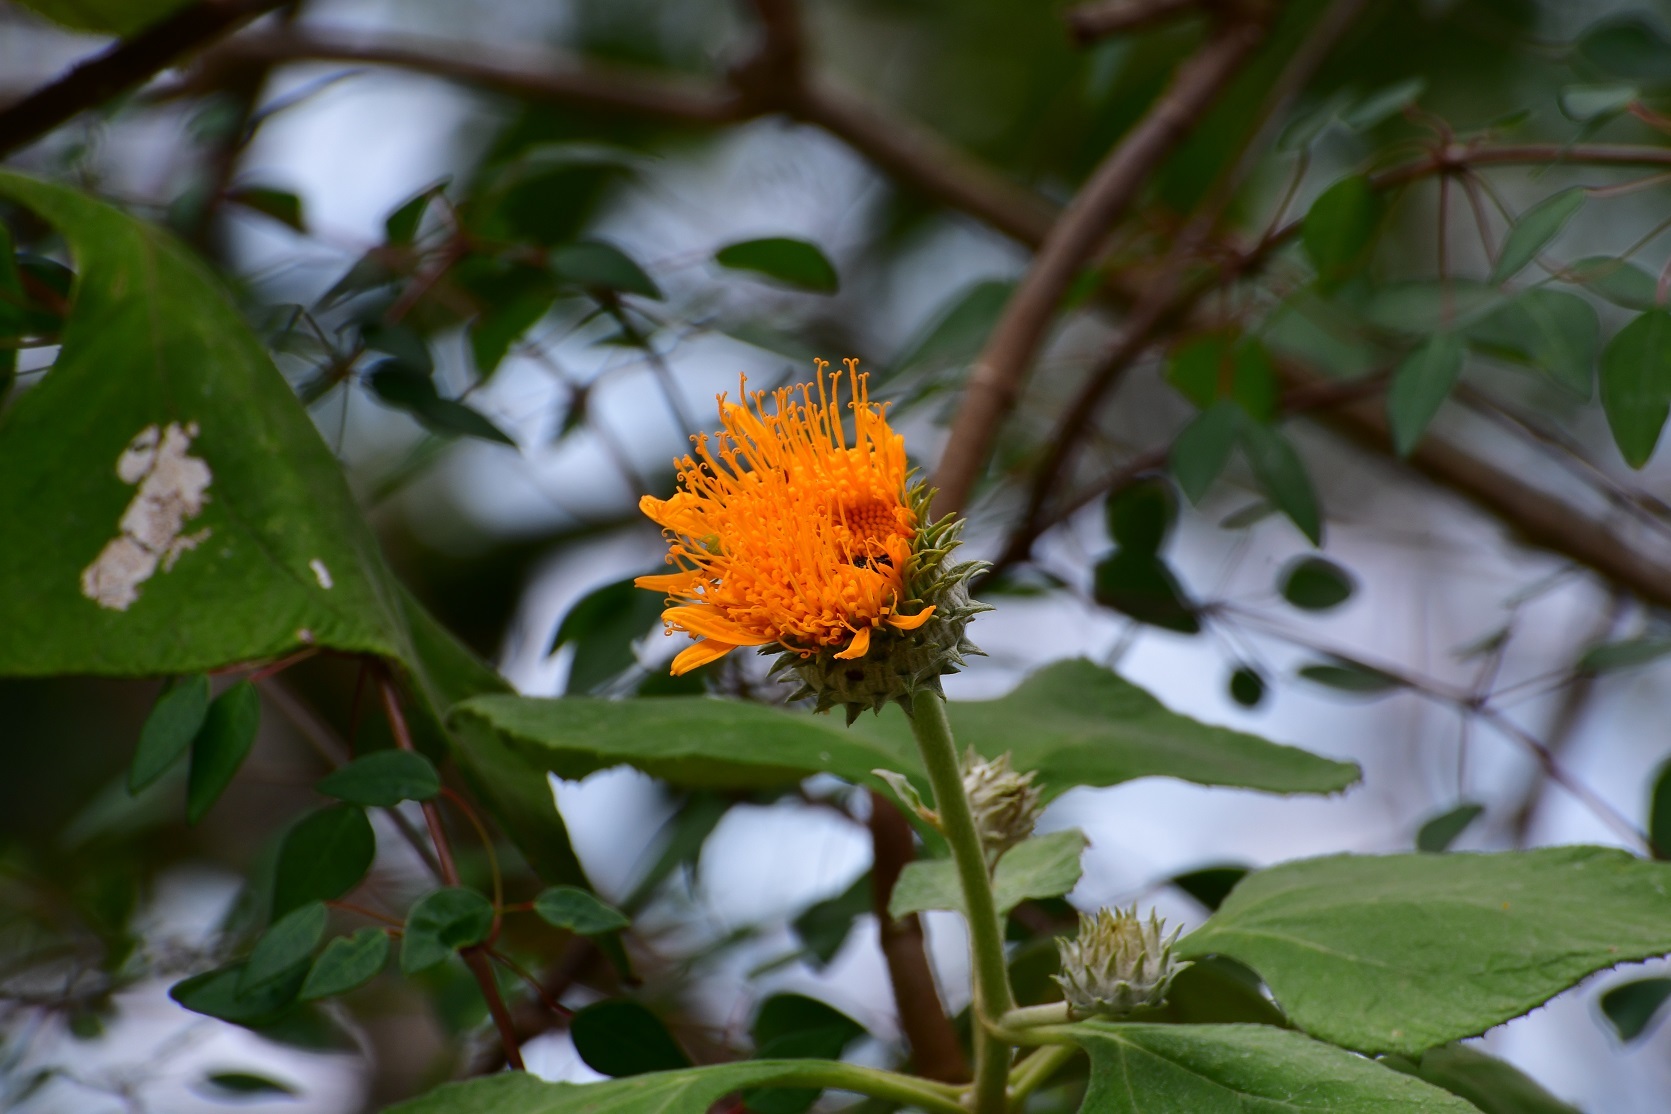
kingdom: Plantae
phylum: Tracheophyta
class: Magnoliopsida
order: Asterales
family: Asteraceae
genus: Sinclairia
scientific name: Sinclairia andrieuxii
